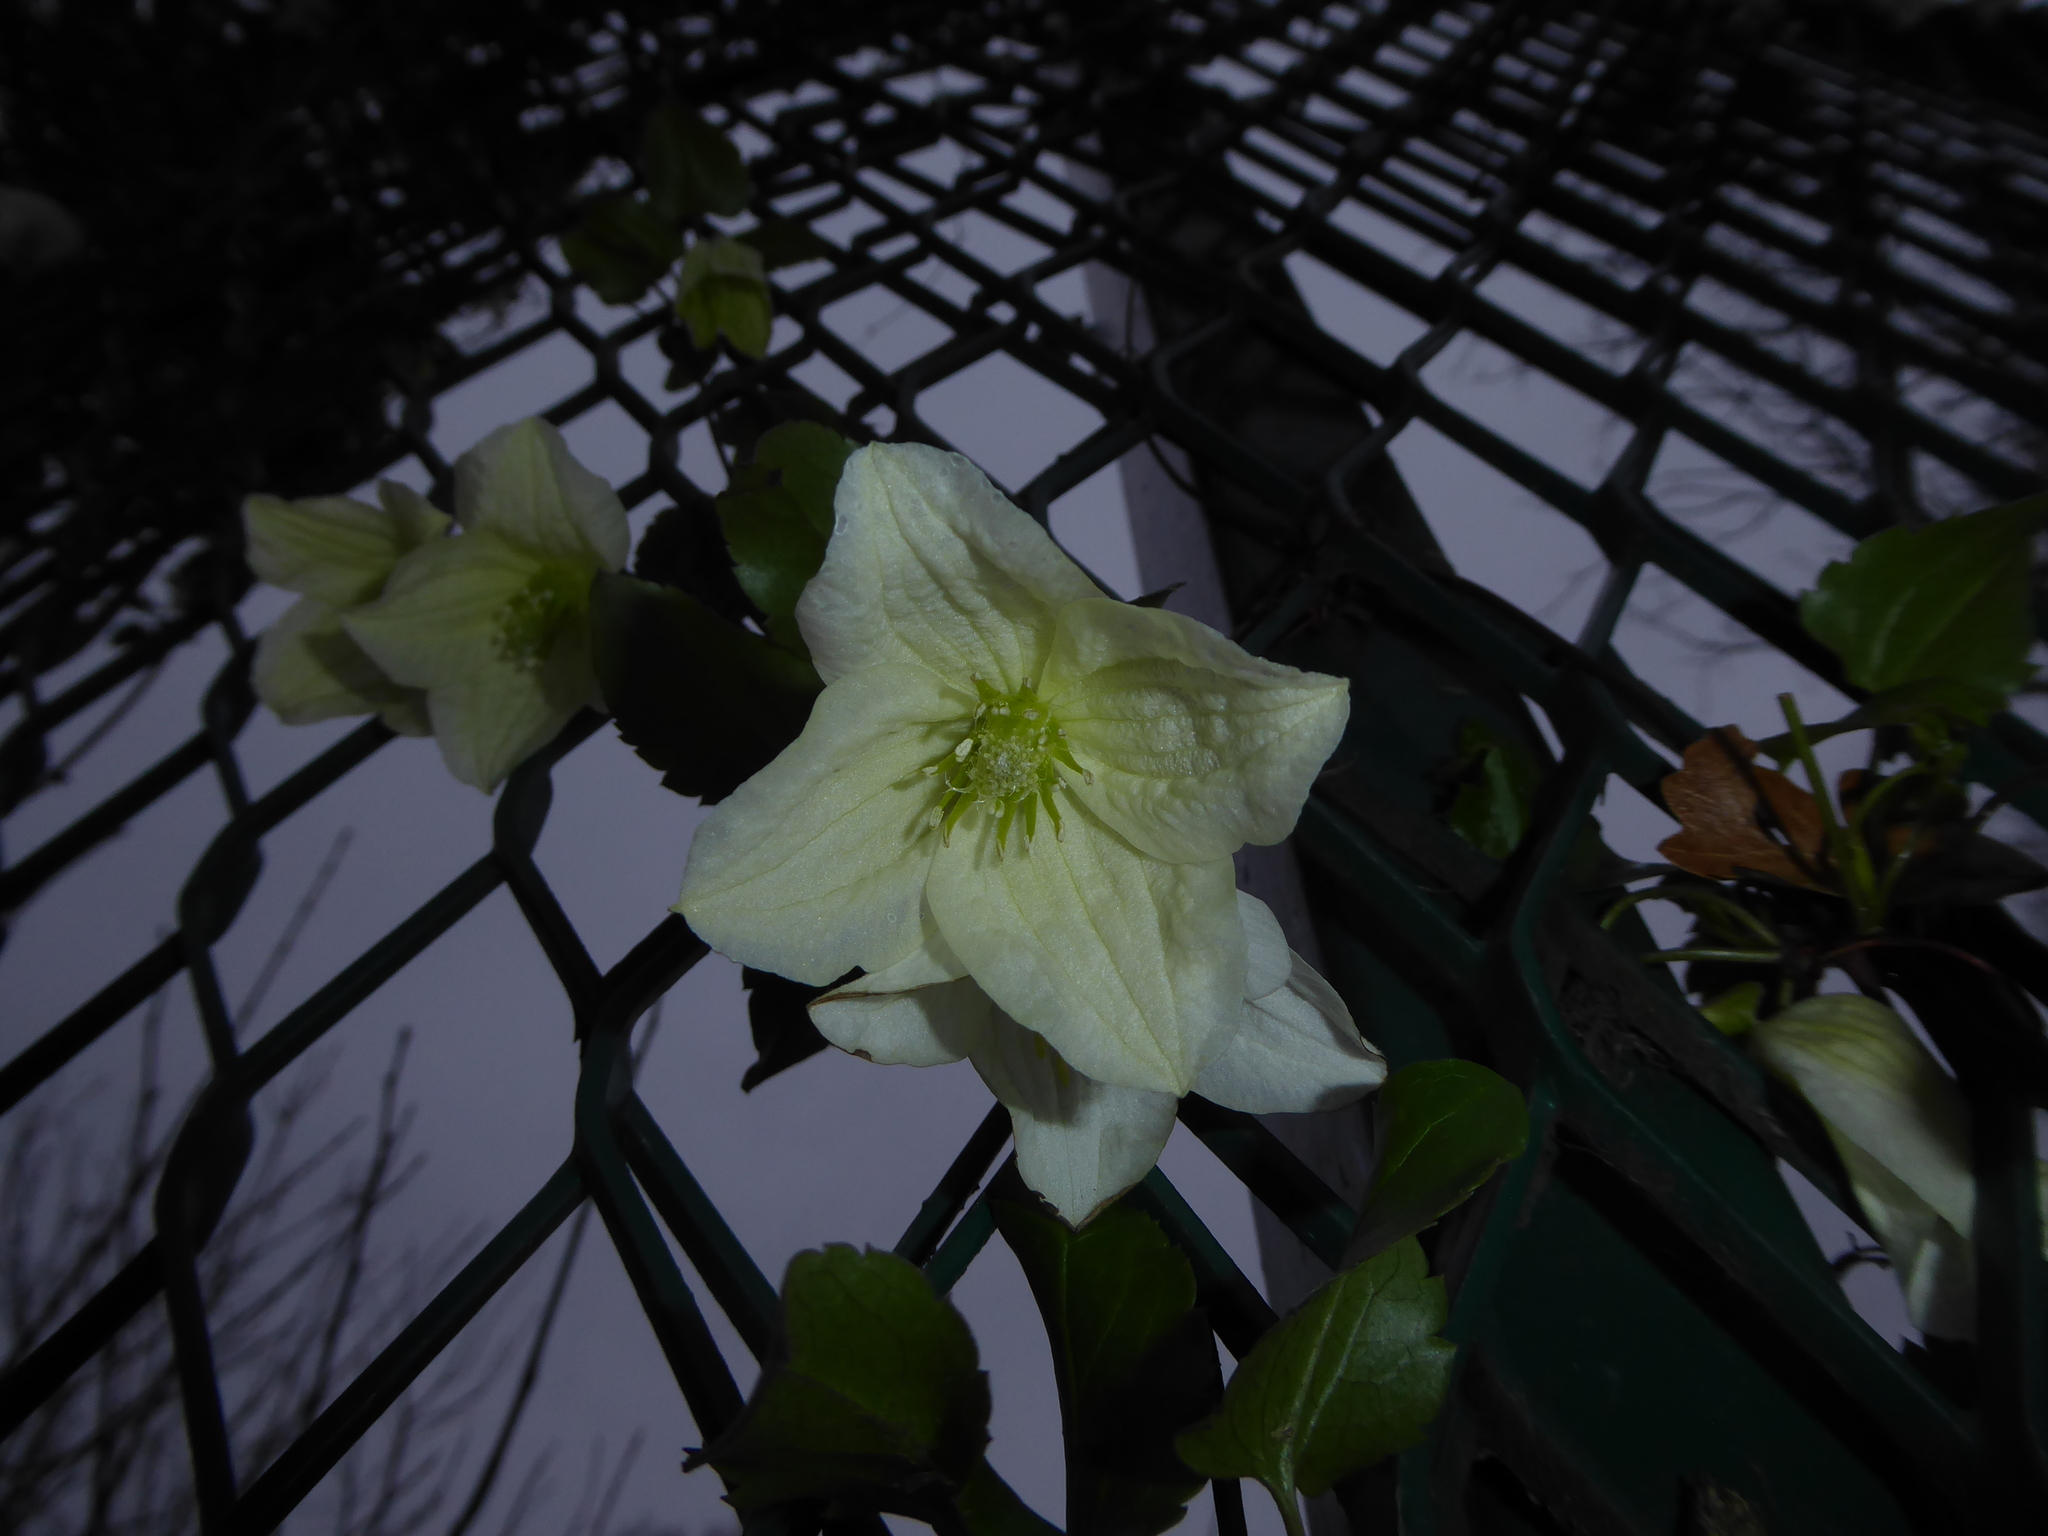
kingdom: Plantae
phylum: Tracheophyta
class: Magnoliopsida
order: Ranunculales
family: Ranunculaceae
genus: Clematis
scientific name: Clematis cirrhosa
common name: Early virgin's-bower
